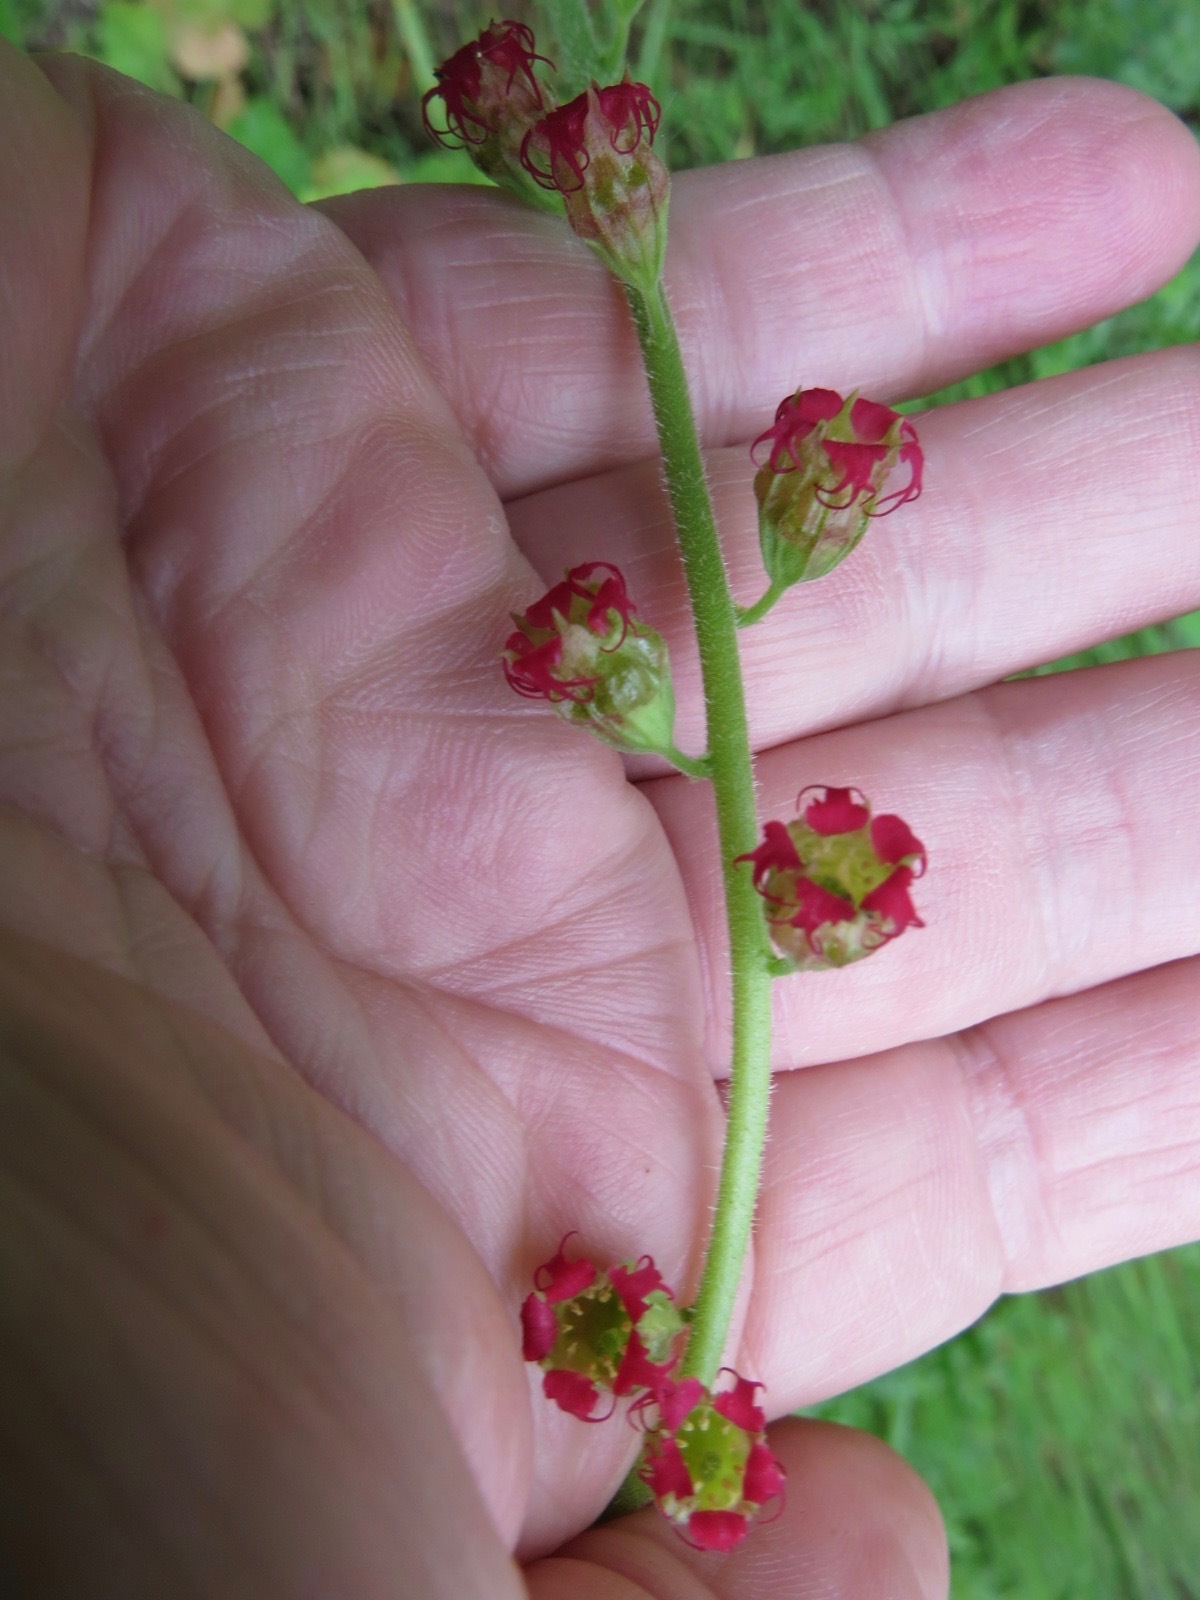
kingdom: Plantae
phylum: Tracheophyta
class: Magnoliopsida
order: Saxifragales
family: Saxifragaceae
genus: Tellima
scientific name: Tellima grandiflora
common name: Fringecups
